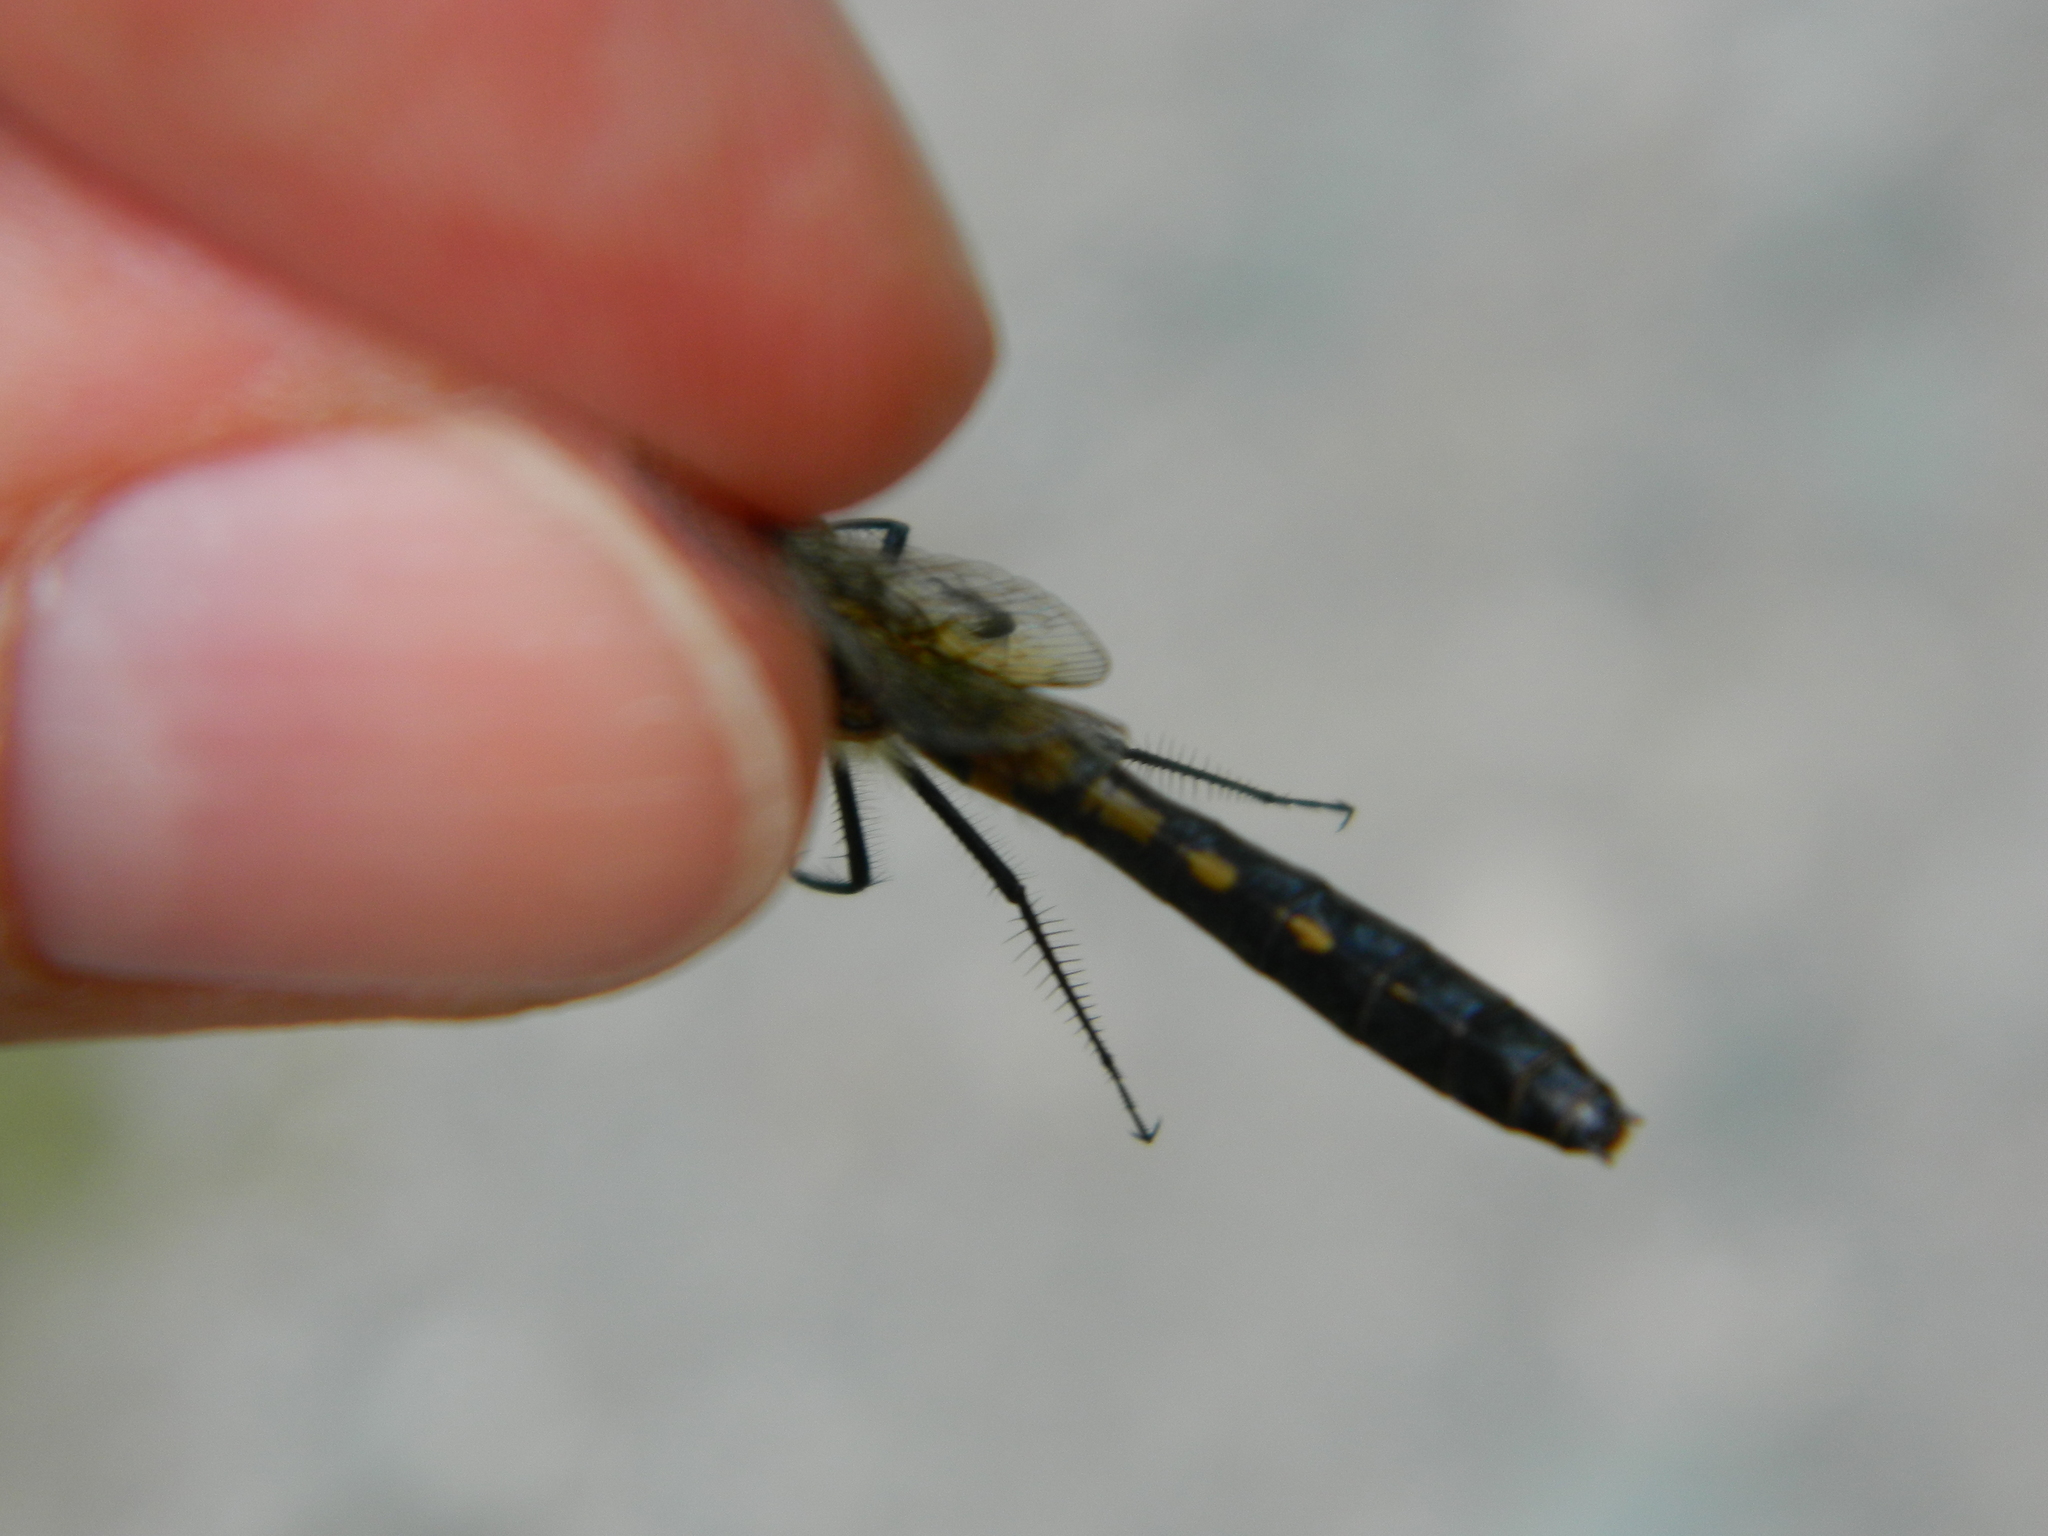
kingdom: Animalia
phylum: Arthropoda
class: Insecta
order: Odonata
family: Libellulidae
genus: Leucorrhinia
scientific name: Leucorrhinia frigida
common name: Frosted whiteface
